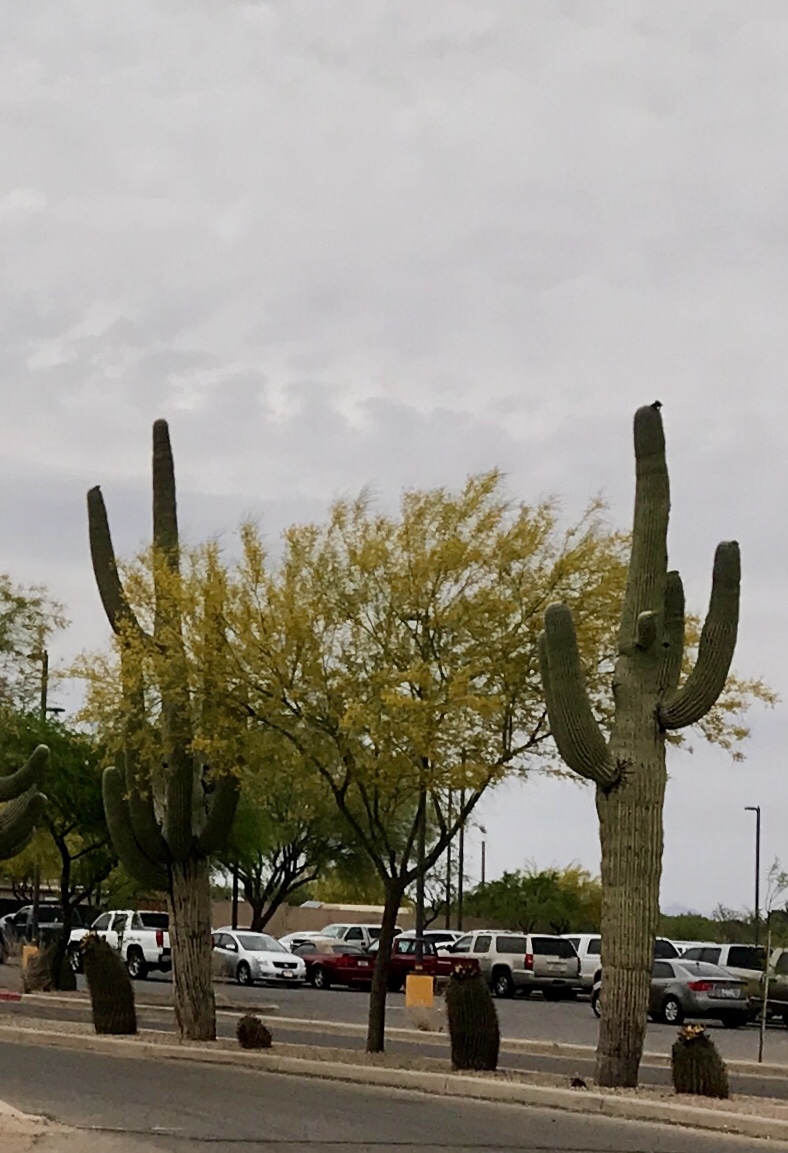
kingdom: Plantae
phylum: Tracheophyta
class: Magnoliopsida
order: Caryophyllales
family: Cactaceae
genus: Carnegiea
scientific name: Carnegiea gigantea
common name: Saguaro
